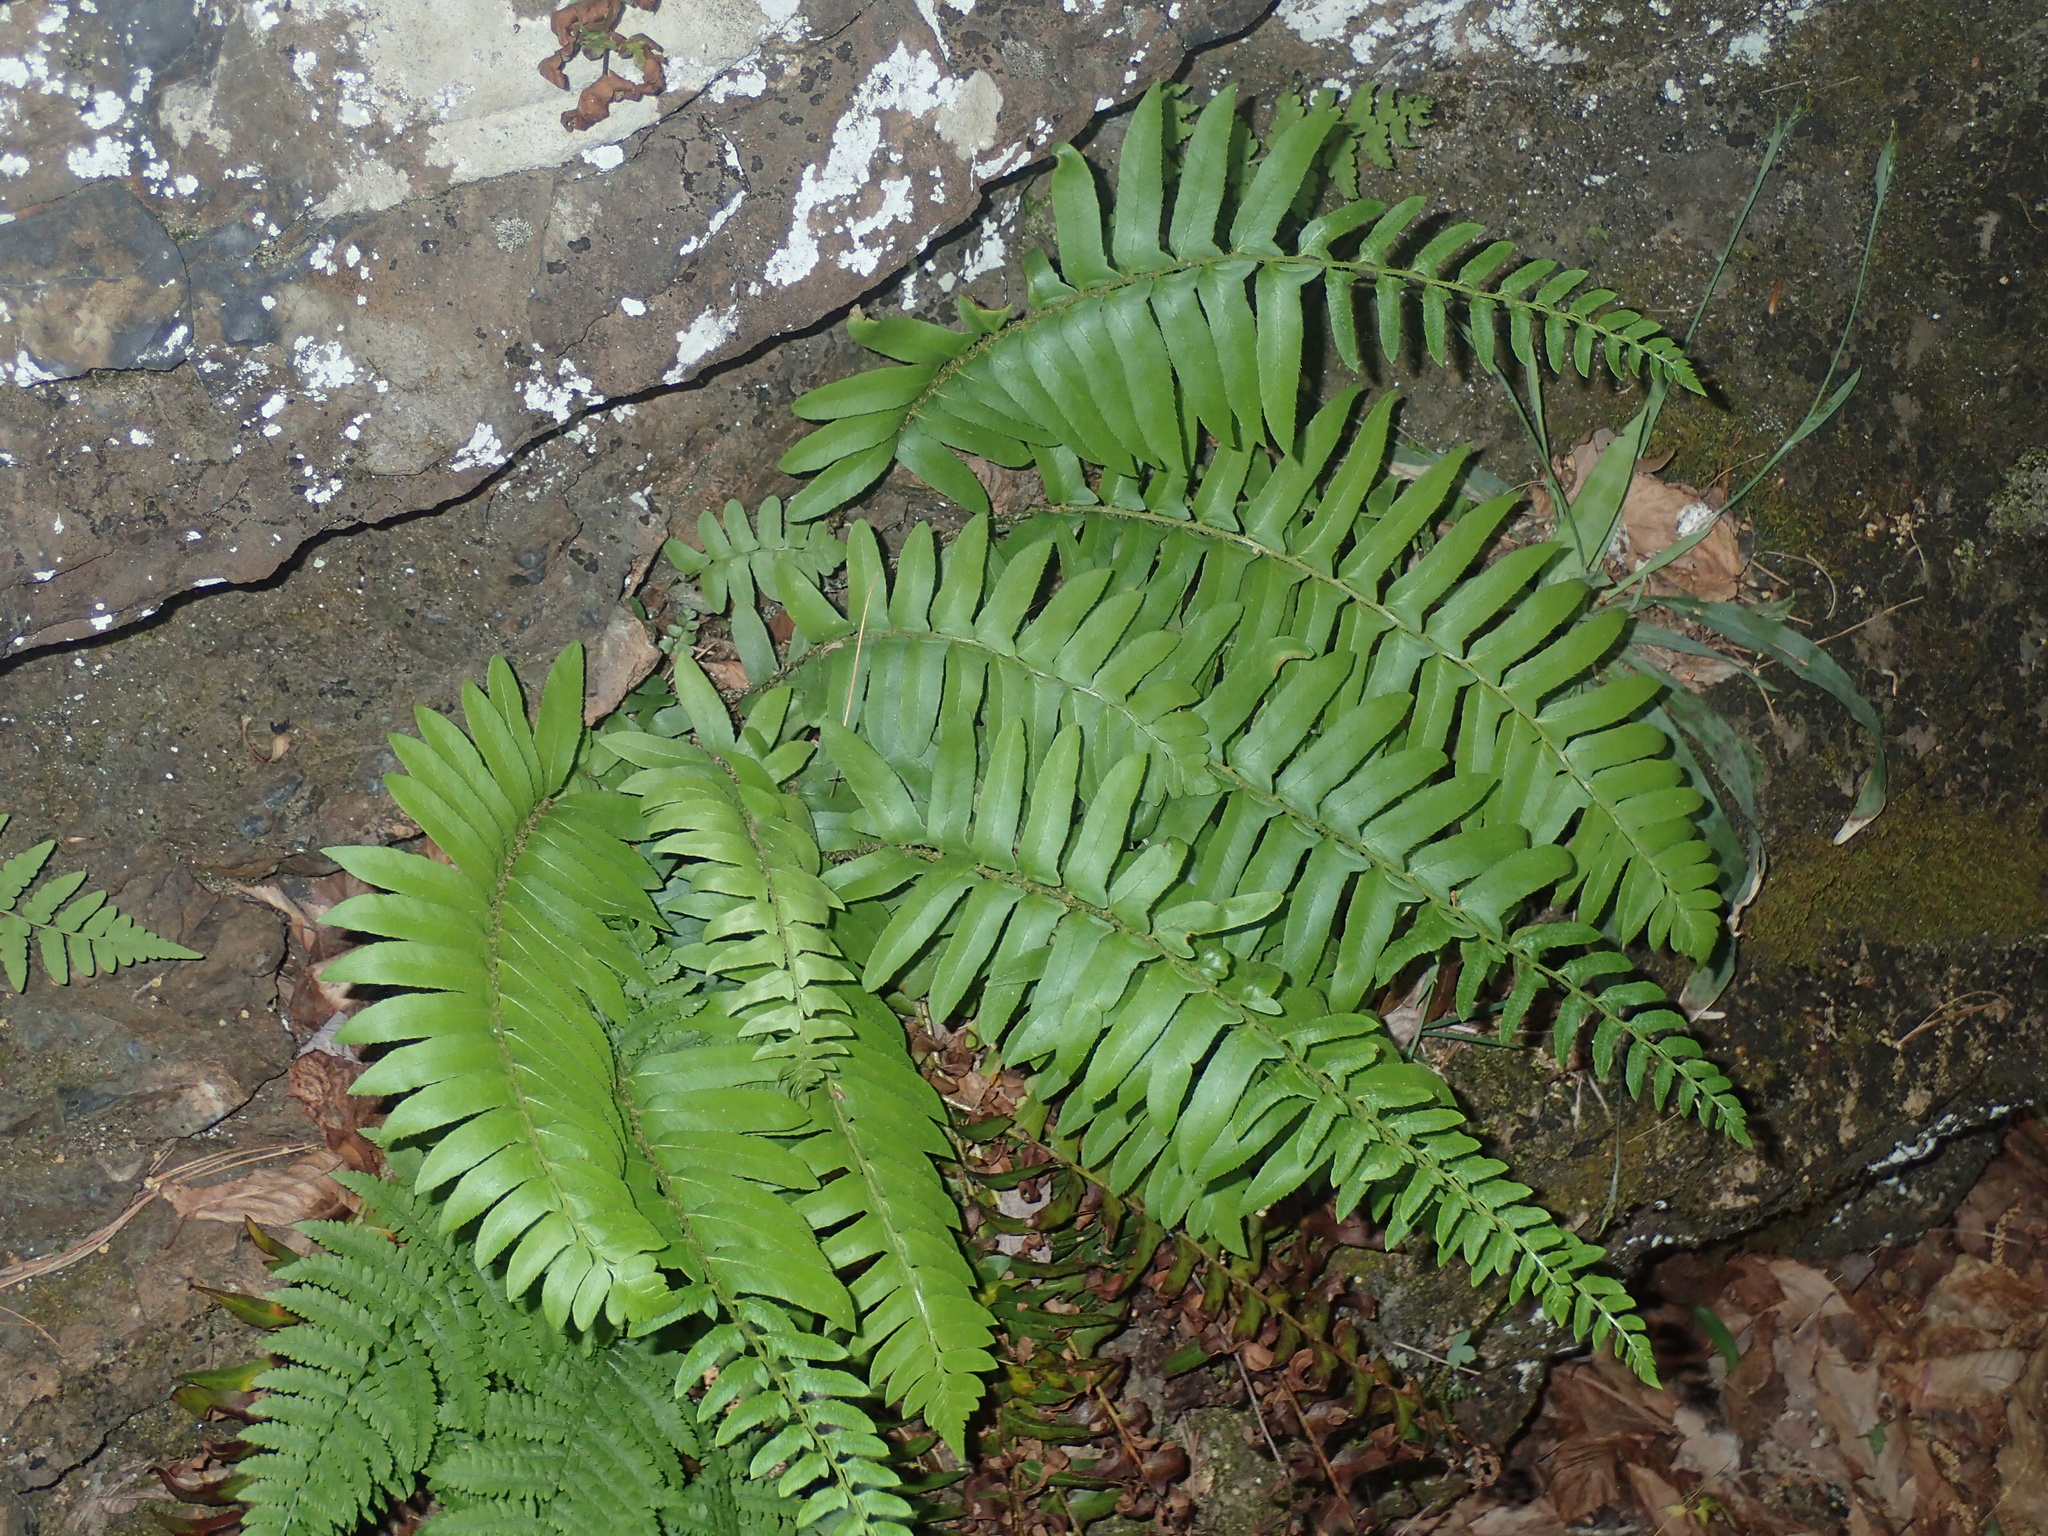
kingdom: Plantae
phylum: Tracheophyta
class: Polypodiopsida
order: Polypodiales
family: Dryopteridaceae
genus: Polystichum
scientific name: Polystichum acrostichoides
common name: Christmas fern
